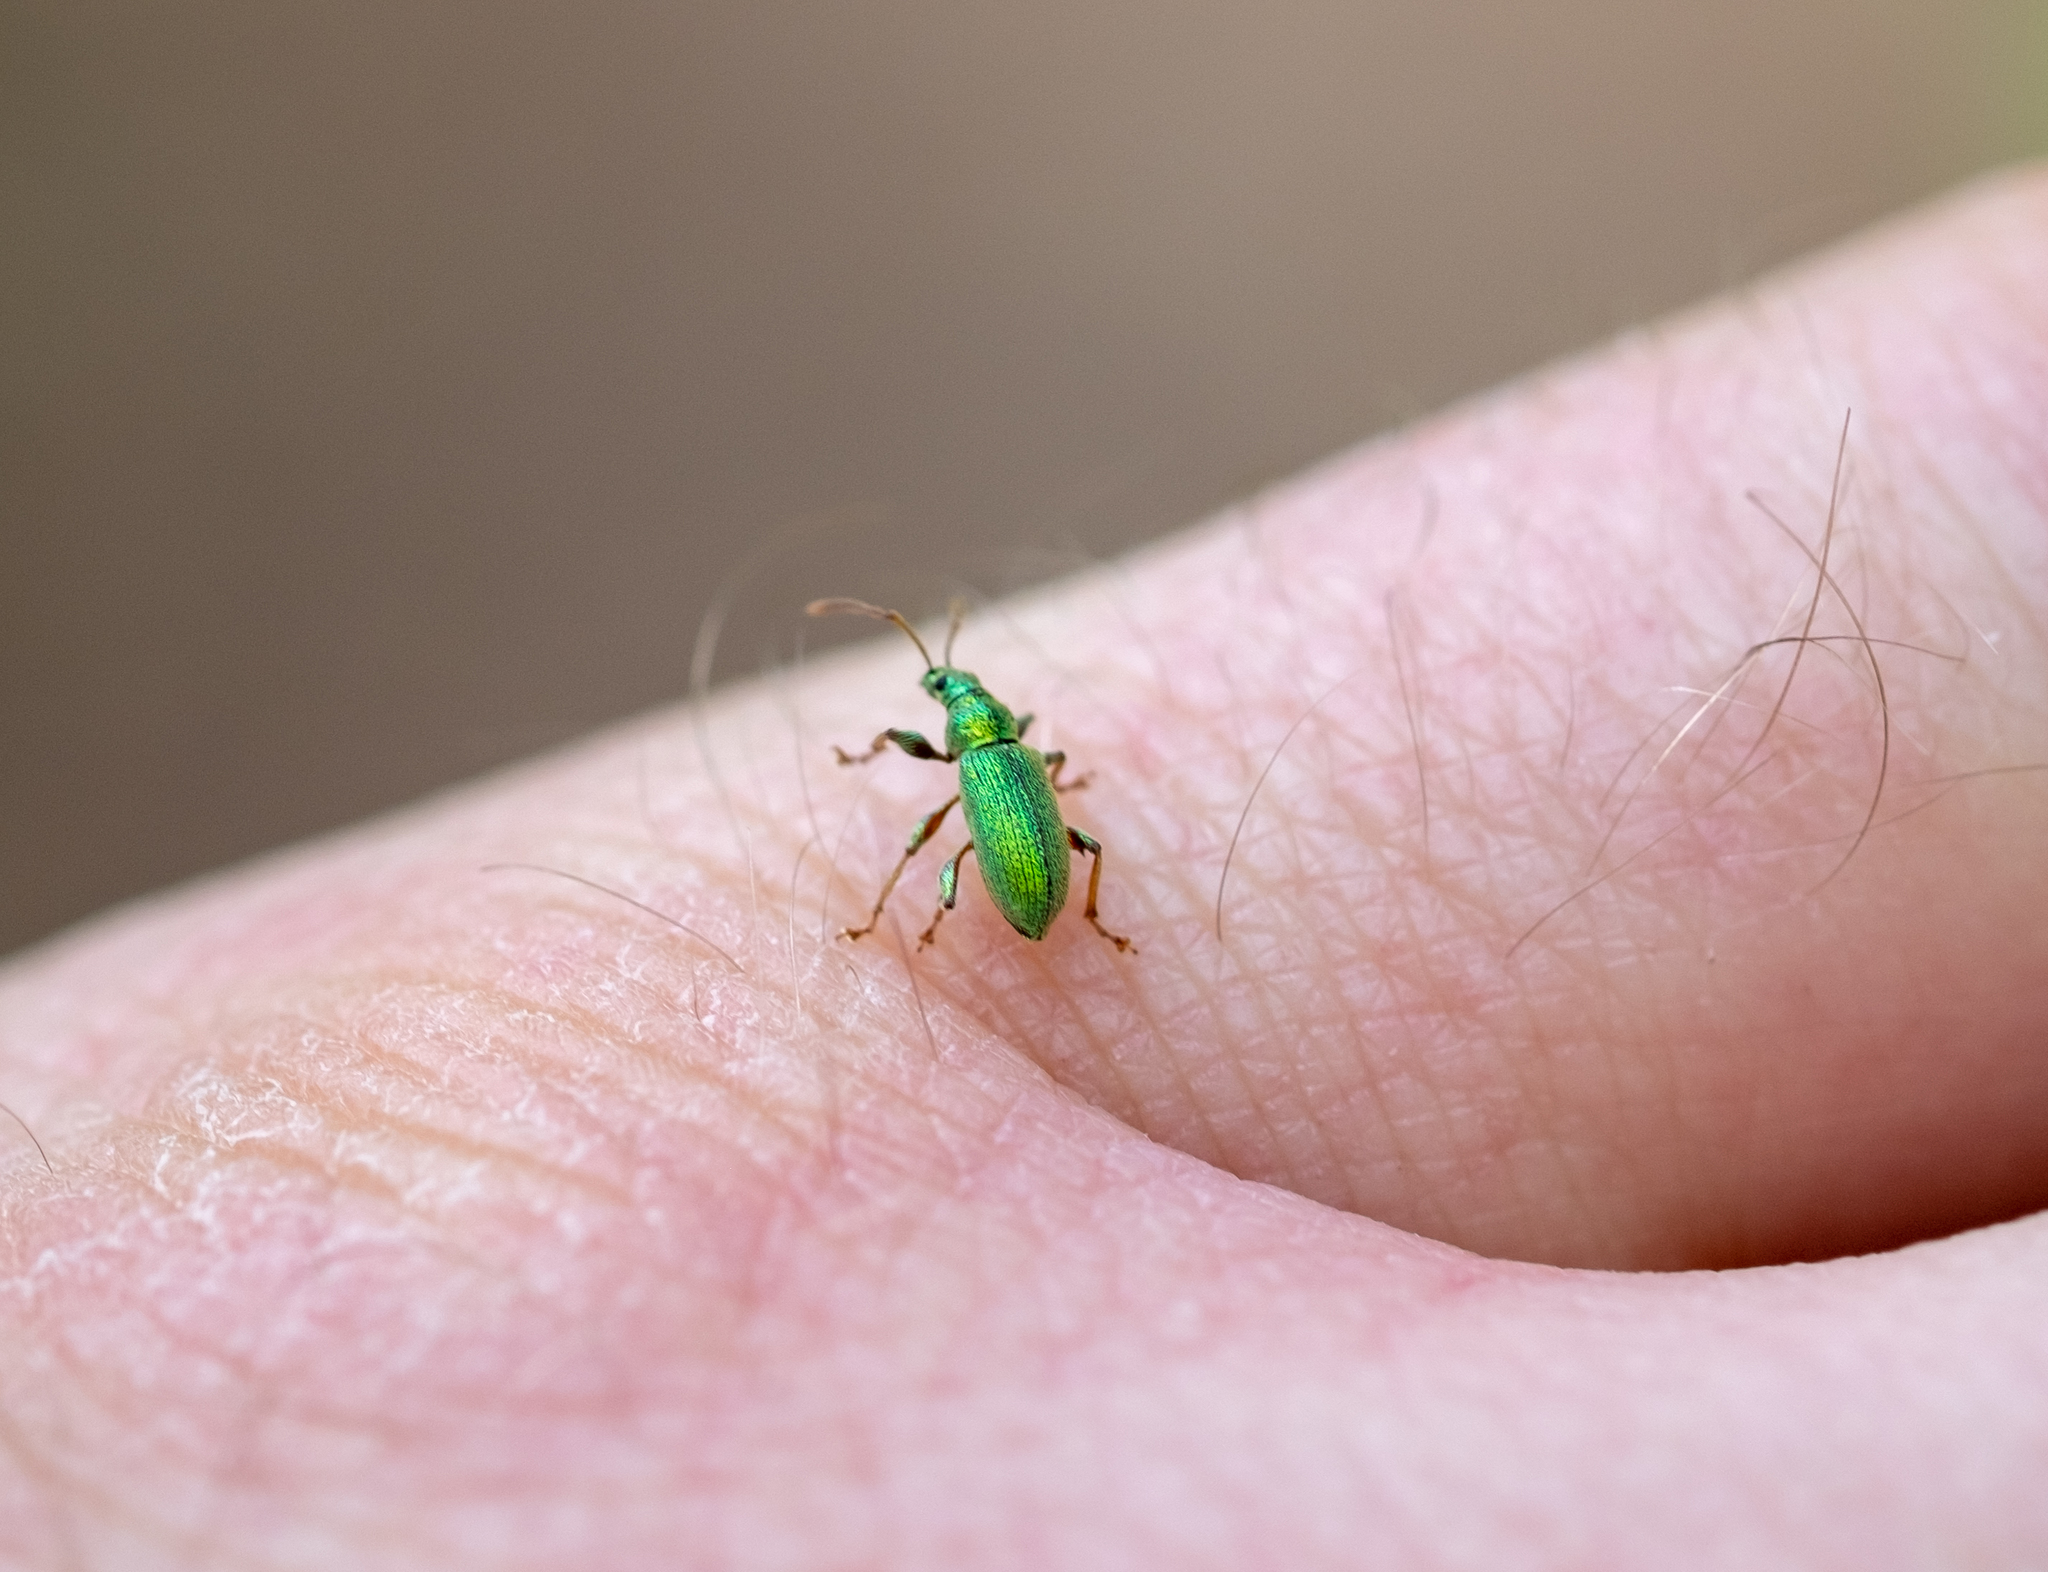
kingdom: Animalia
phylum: Arthropoda
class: Insecta
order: Coleoptera
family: Curculionidae
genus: Phyllobius
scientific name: Phyllobius argentatus
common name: Silver-green leaf weevil
